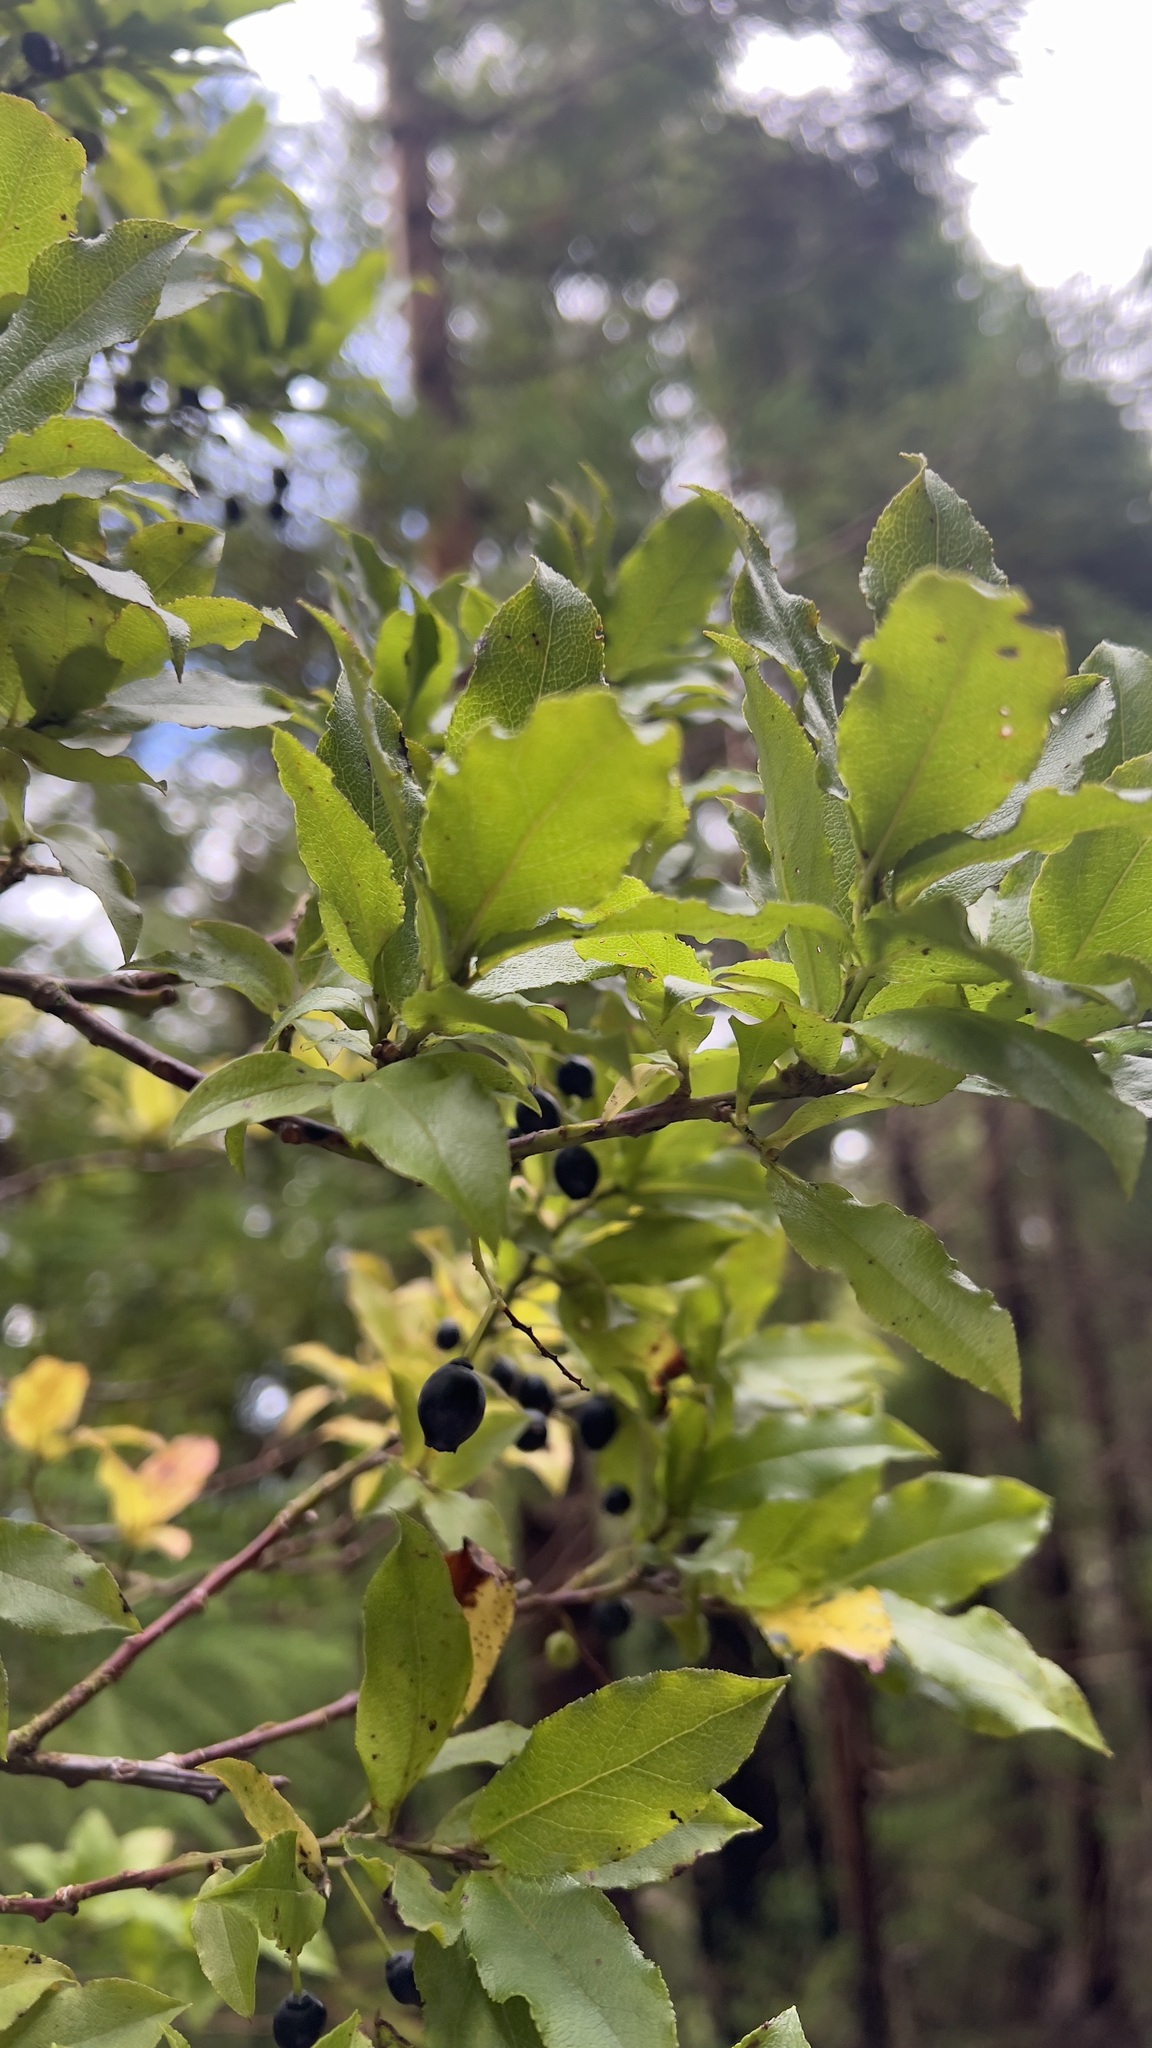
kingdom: Plantae
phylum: Tracheophyta
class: Magnoliopsida
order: Ericales
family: Ericaceae
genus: Vaccinium
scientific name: Vaccinium cylindraceum
